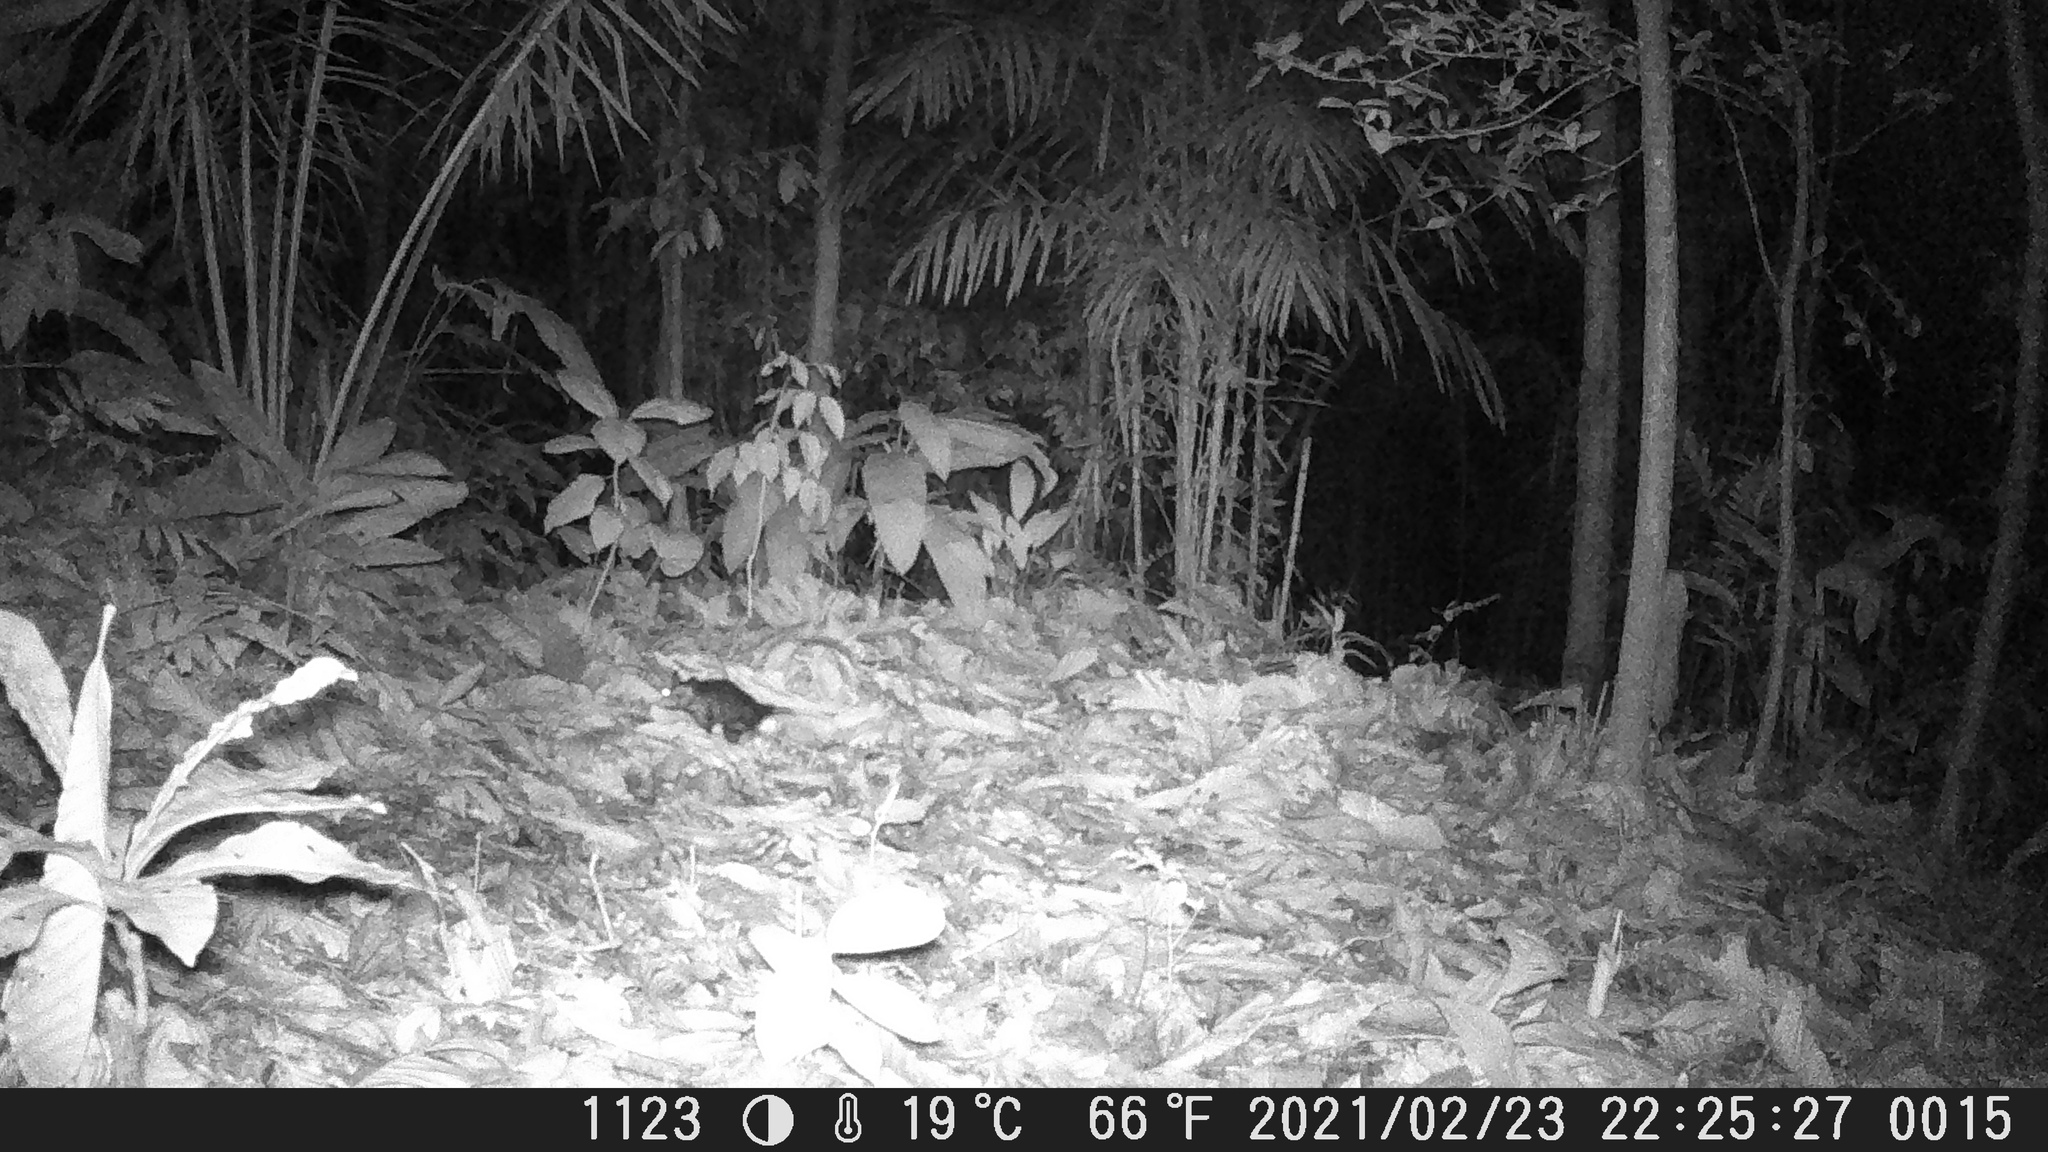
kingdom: Animalia
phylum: Chordata
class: Mammalia
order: Didelphimorphia
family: Didelphidae
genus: Didelphis
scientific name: Didelphis marsupialis
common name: Common opossum
